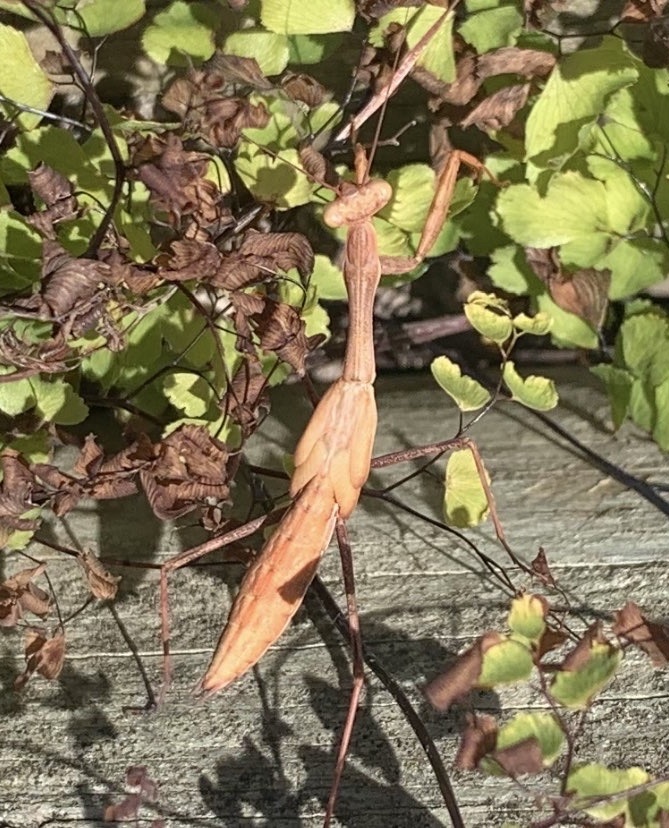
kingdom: Animalia
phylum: Arthropoda
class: Insecta
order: Mantodea
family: Miomantidae
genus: Miomantis
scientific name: Miomantis caffra
